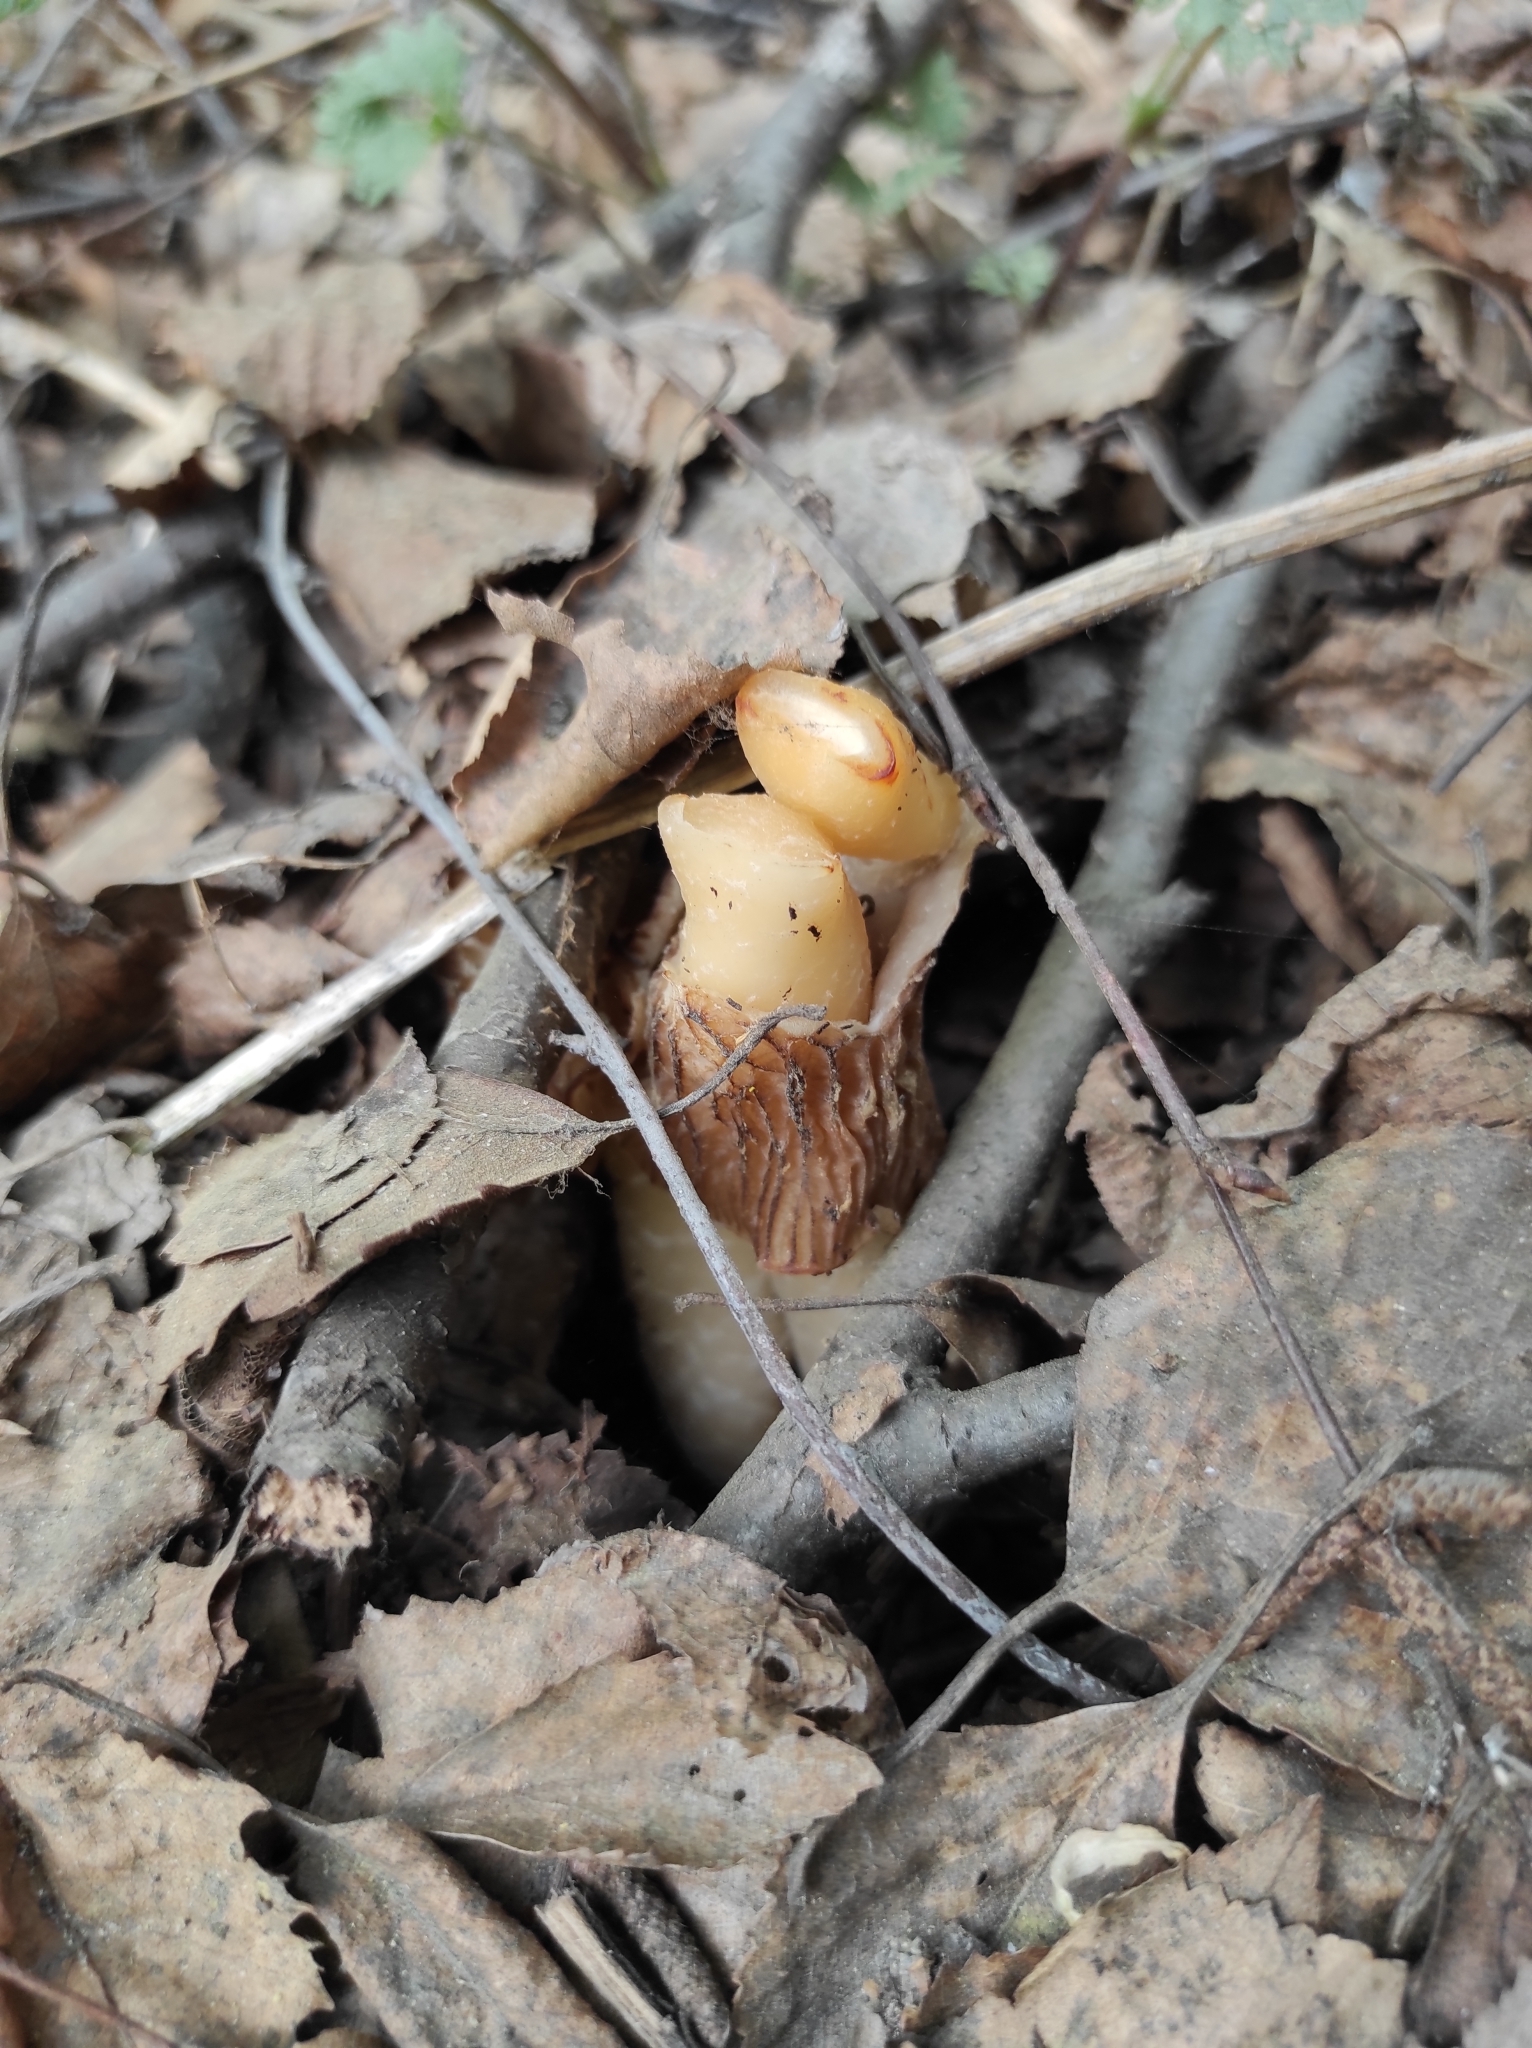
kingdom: Fungi
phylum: Ascomycota
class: Pezizomycetes
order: Pezizales
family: Morchellaceae
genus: Verpa
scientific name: Verpa bohemica
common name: Wrinkled thimble morel
